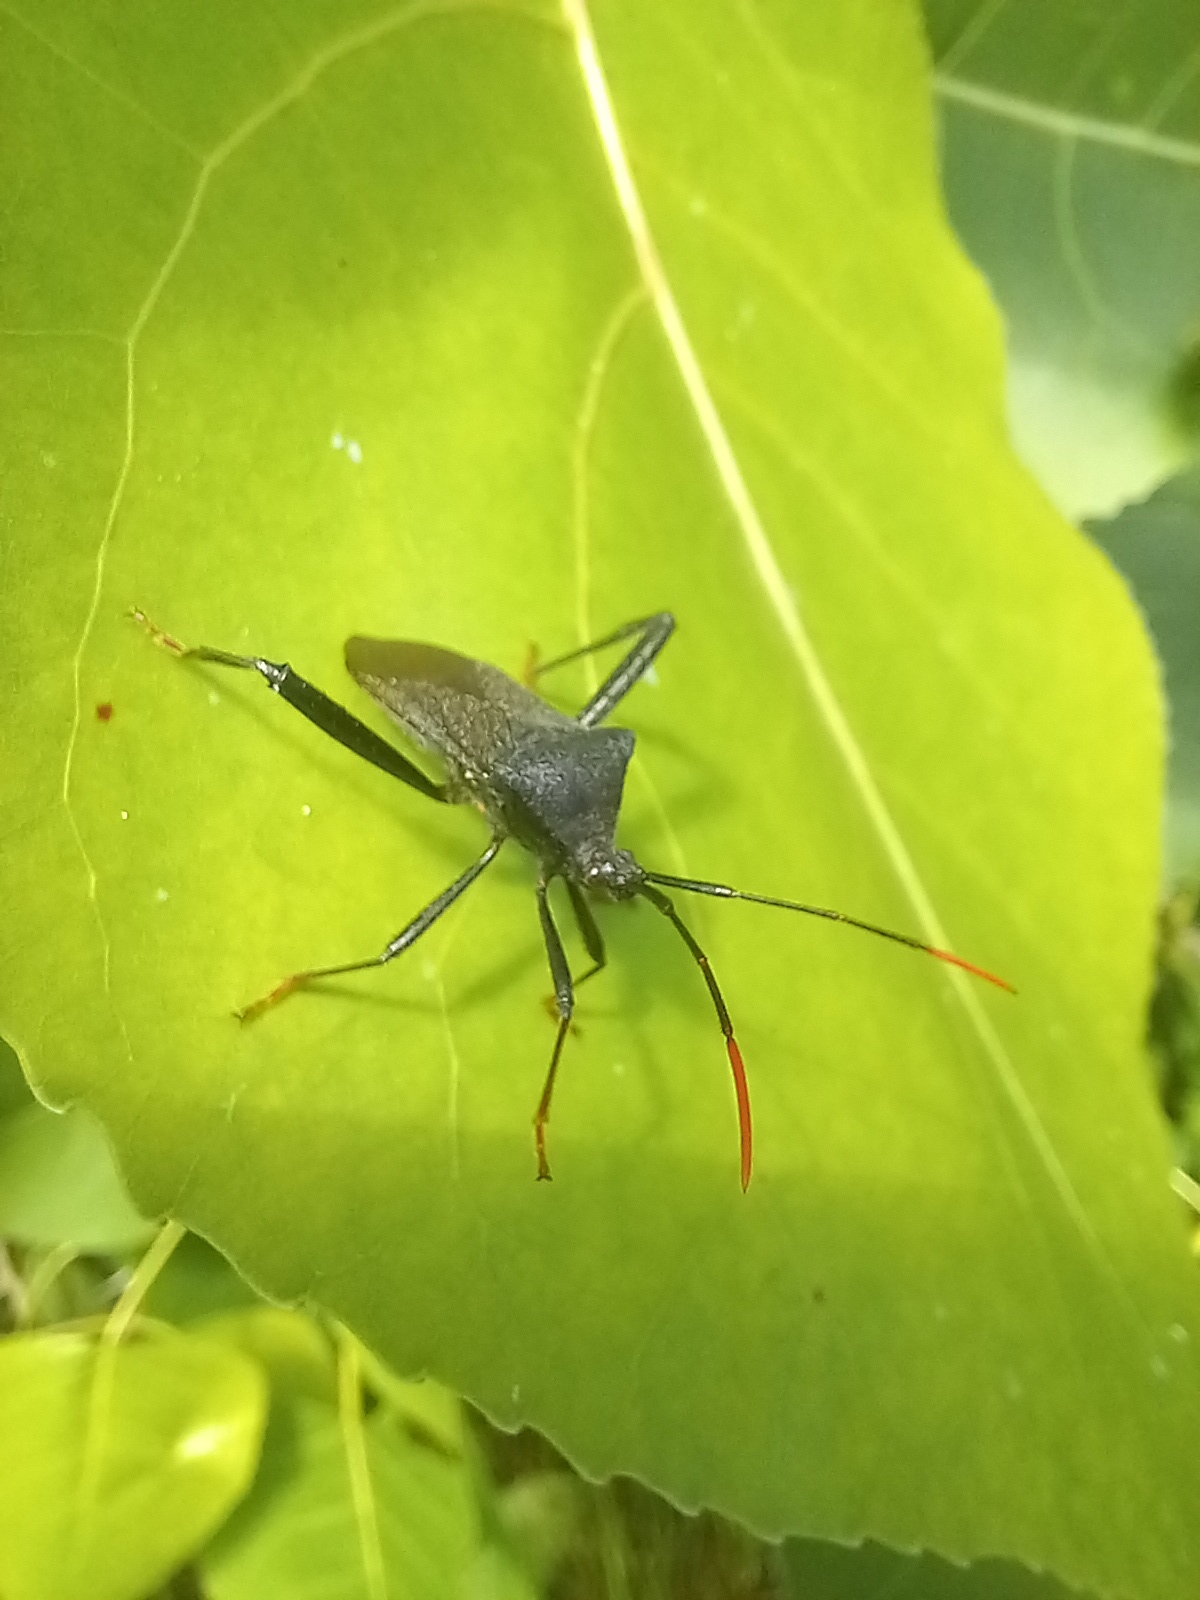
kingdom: Animalia
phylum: Arthropoda
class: Insecta
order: Hemiptera
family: Coreidae
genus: Acanthocephala
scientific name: Acanthocephala terminalis
